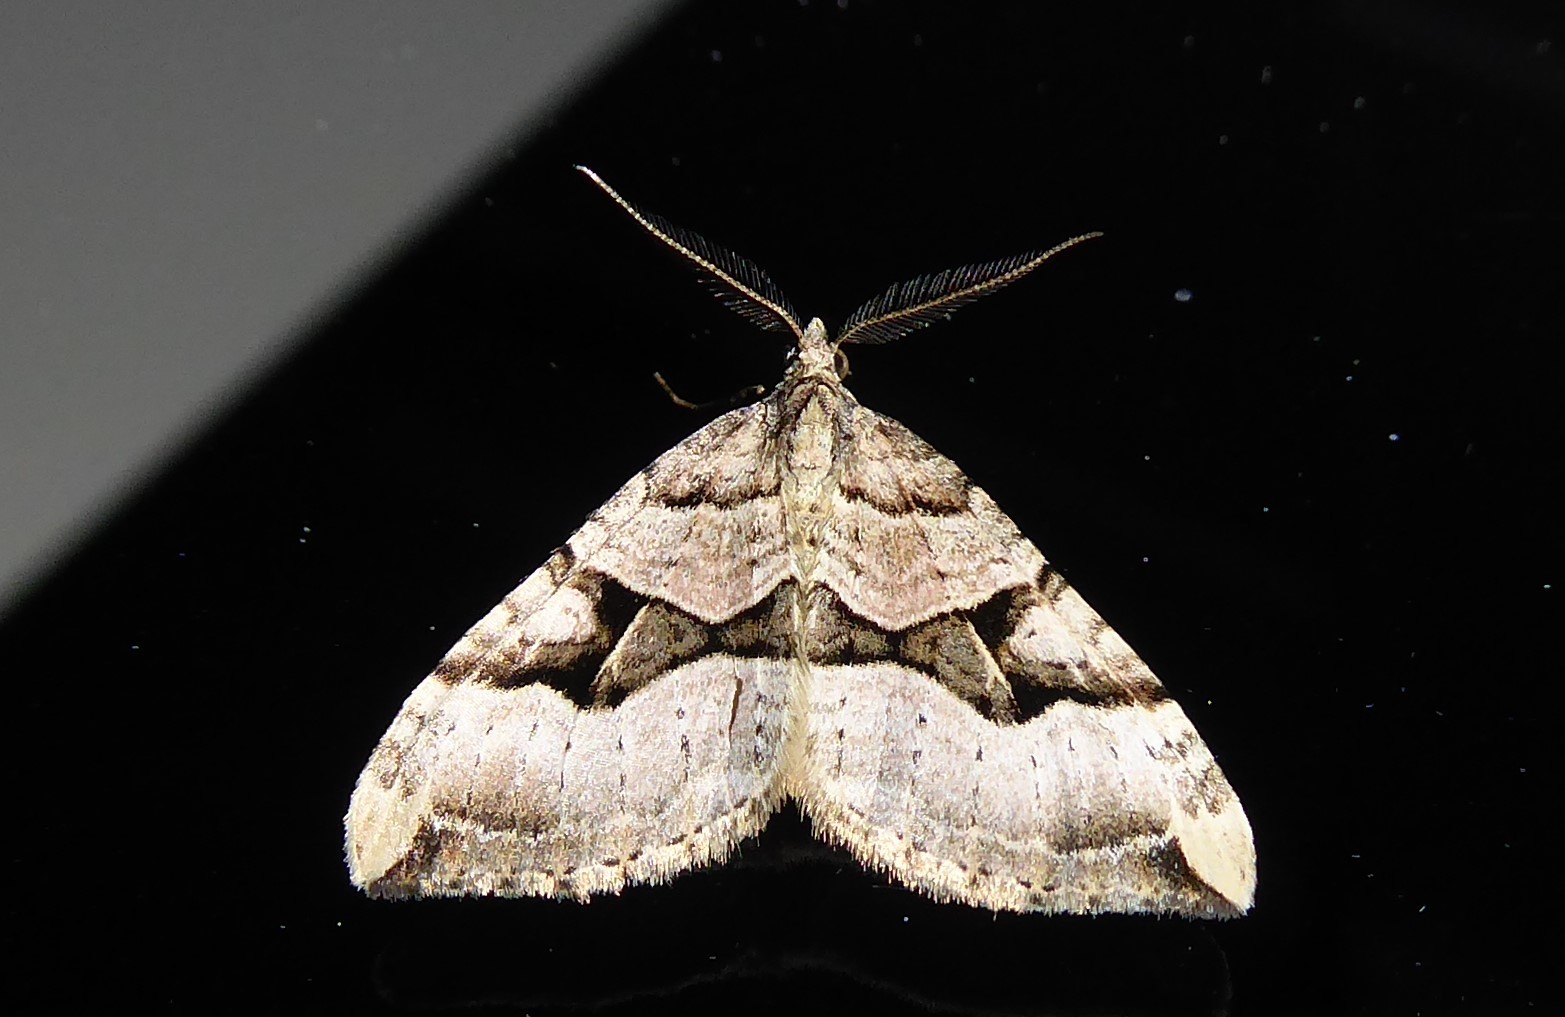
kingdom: Animalia
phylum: Arthropoda
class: Insecta
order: Lepidoptera
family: Geometridae
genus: Xanthorhoe
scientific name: Xanthorhoe semifissata
